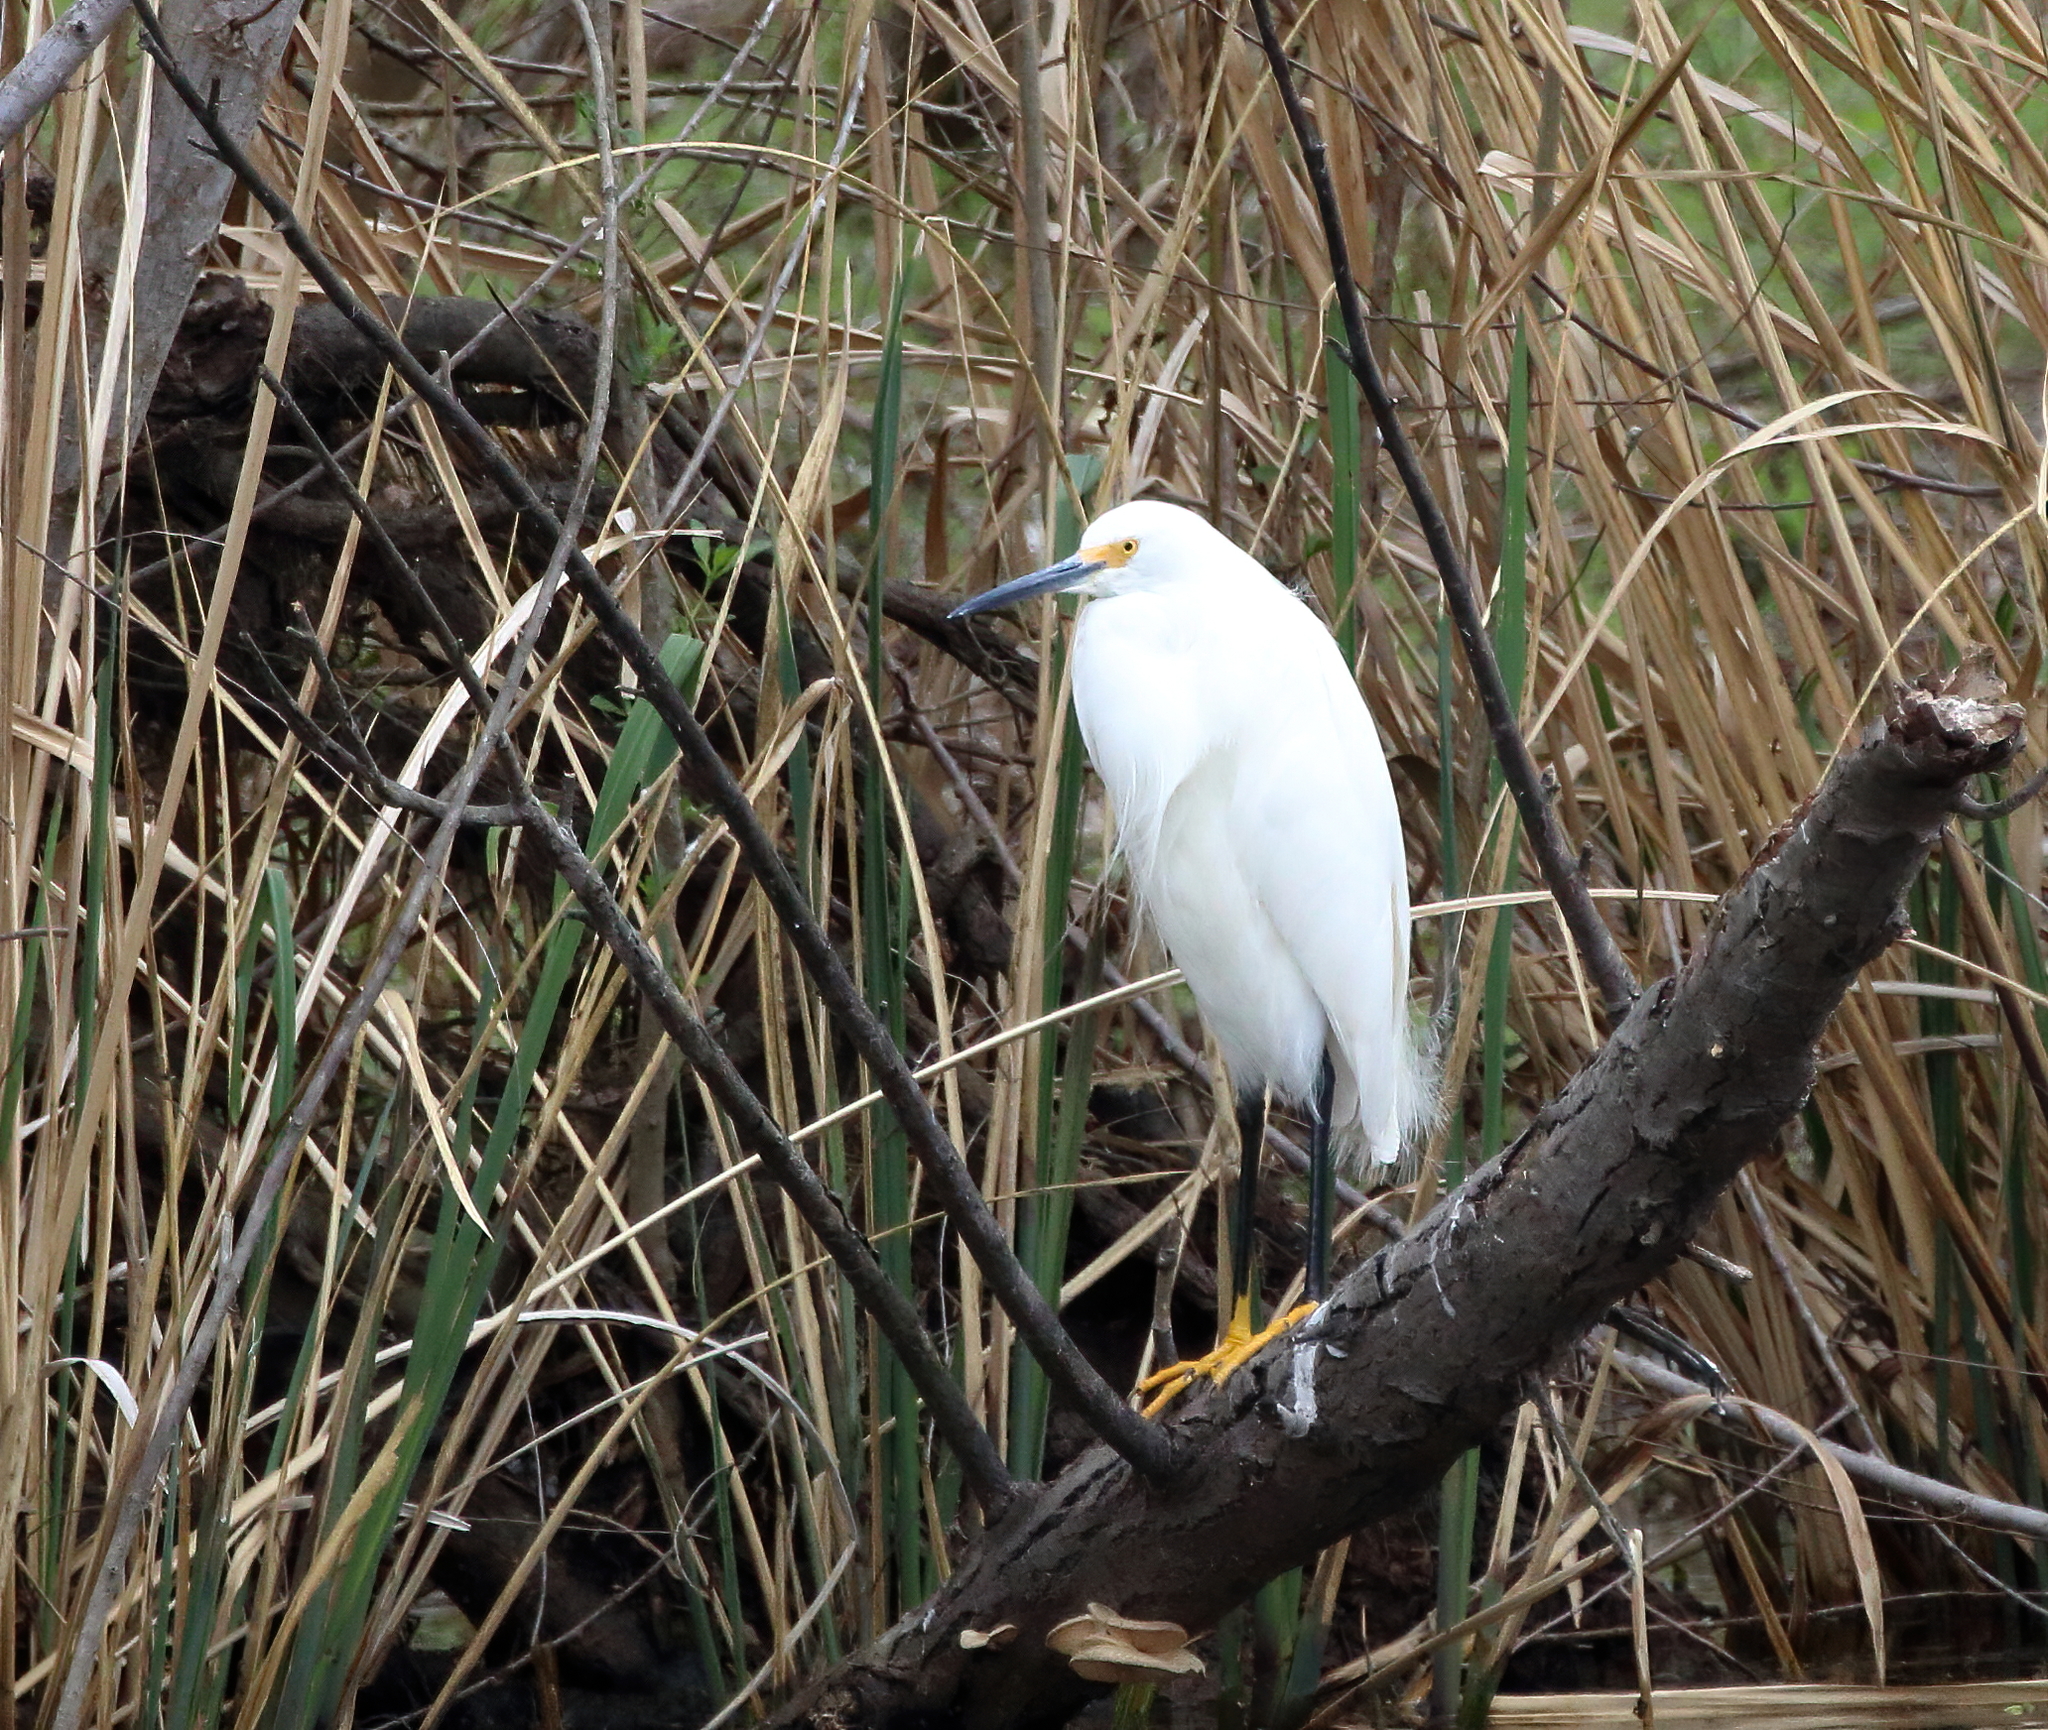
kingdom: Animalia
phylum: Chordata
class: Aves
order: Pelecaniformes
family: Ardeidae
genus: Egretta
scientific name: Egretta thula
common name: Snowy egret
